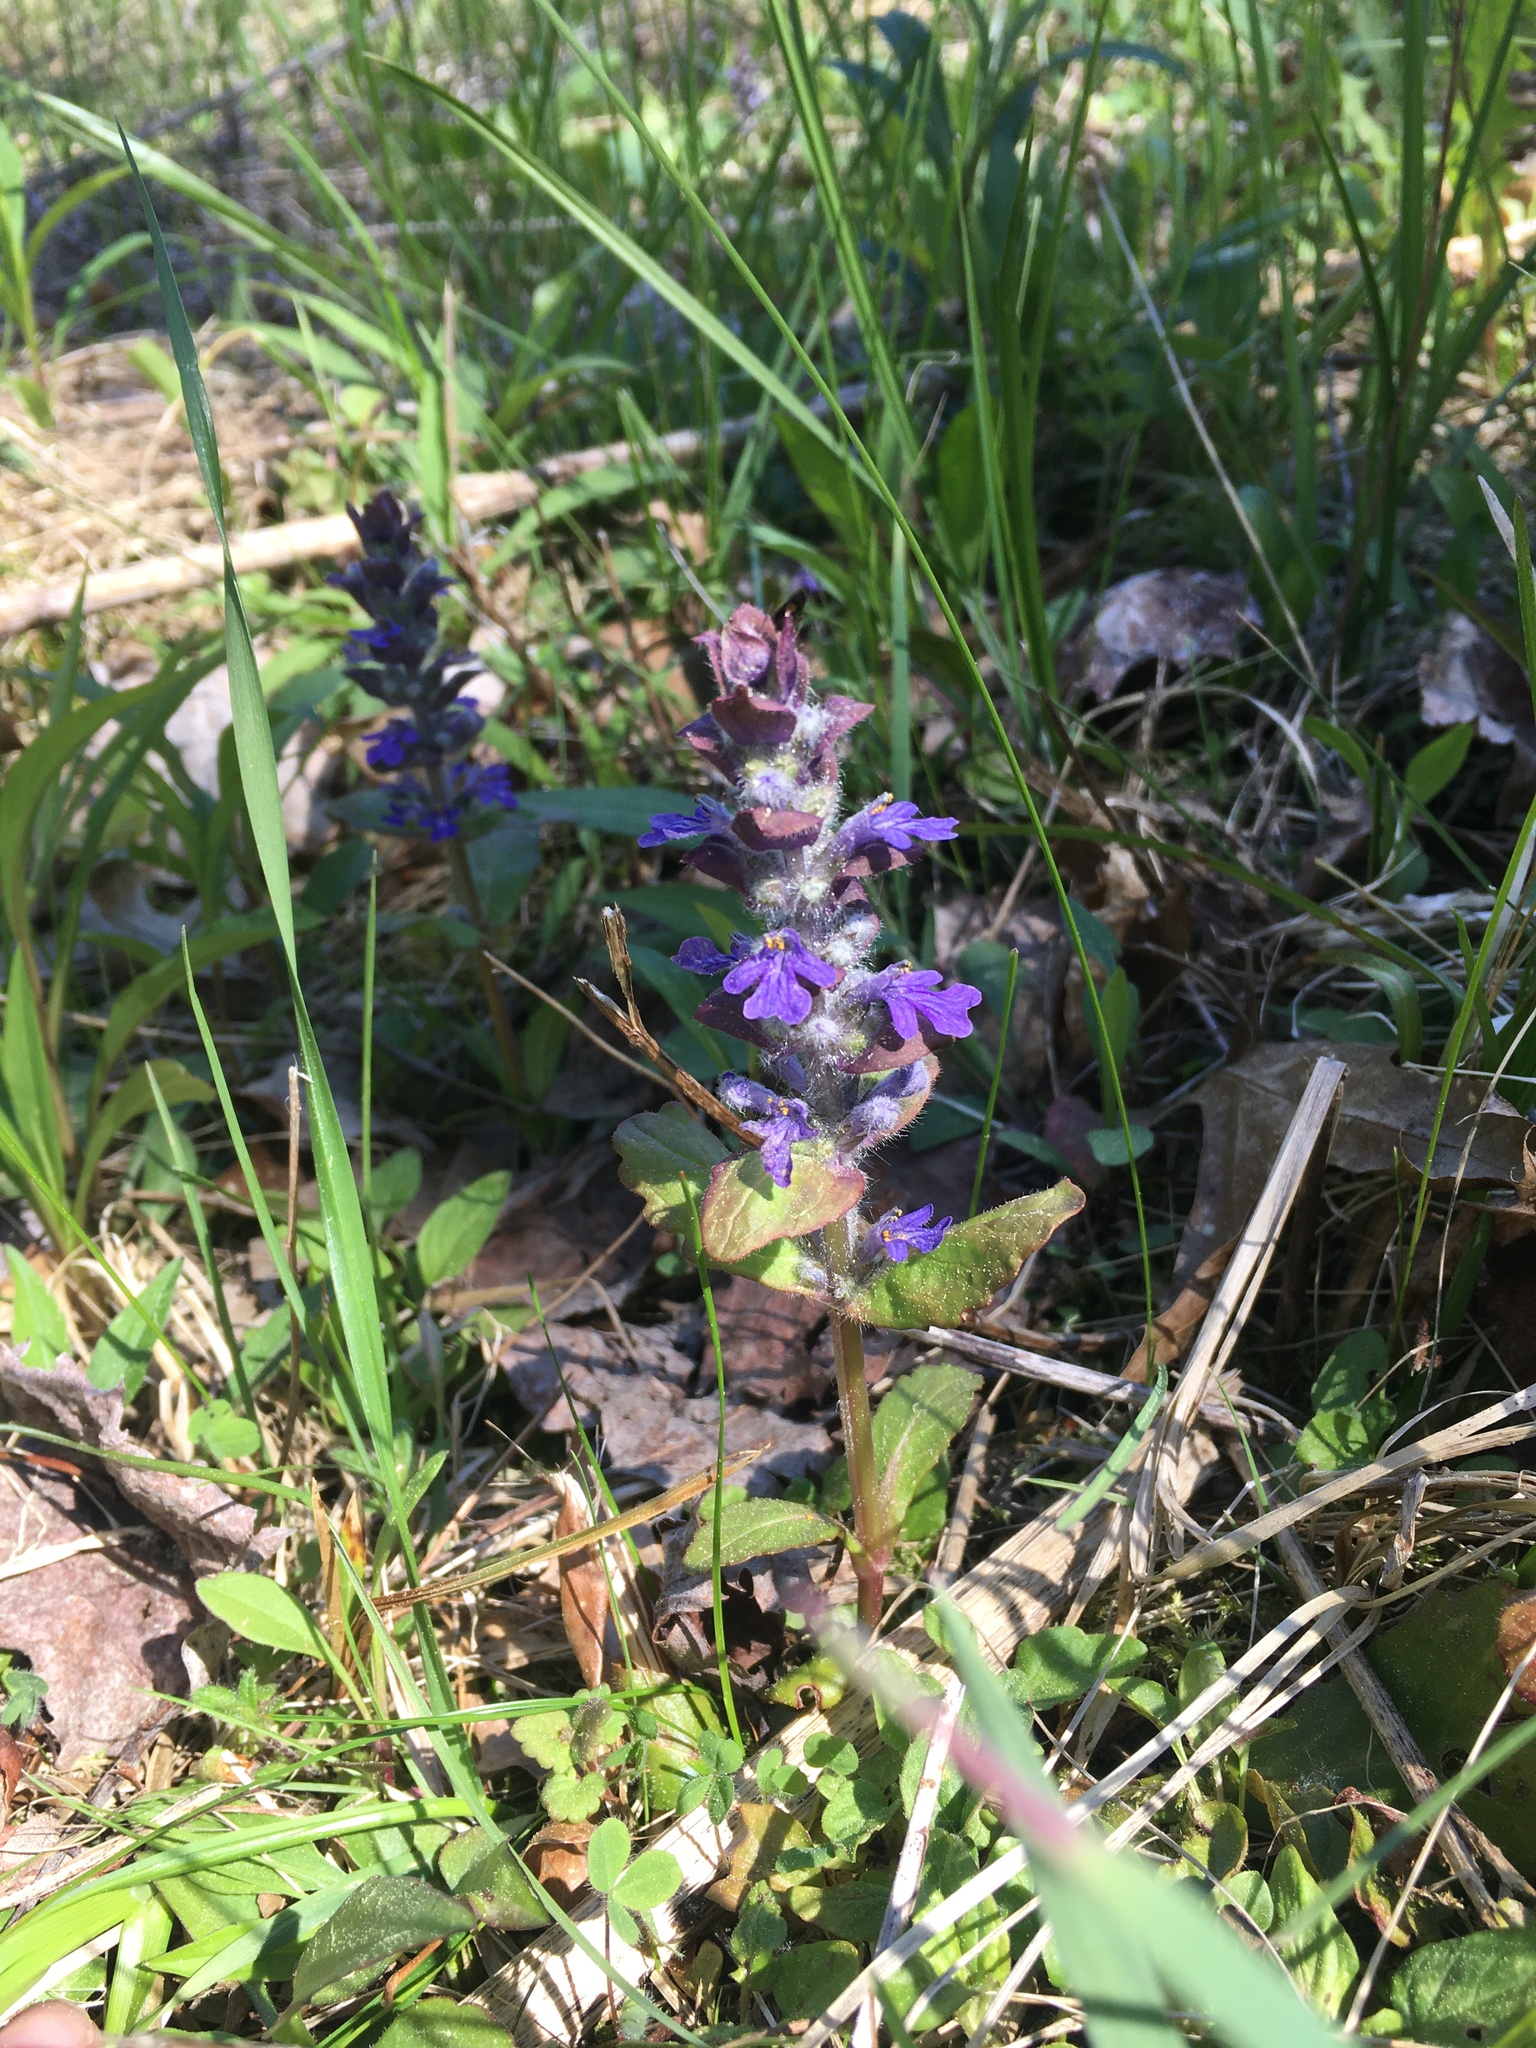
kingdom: Plantae
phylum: Tracheophyta
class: Magnoliopsida
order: Lamiales
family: Lamiaceae
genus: Ajuga
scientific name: Ajuga reptans
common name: Bugle
